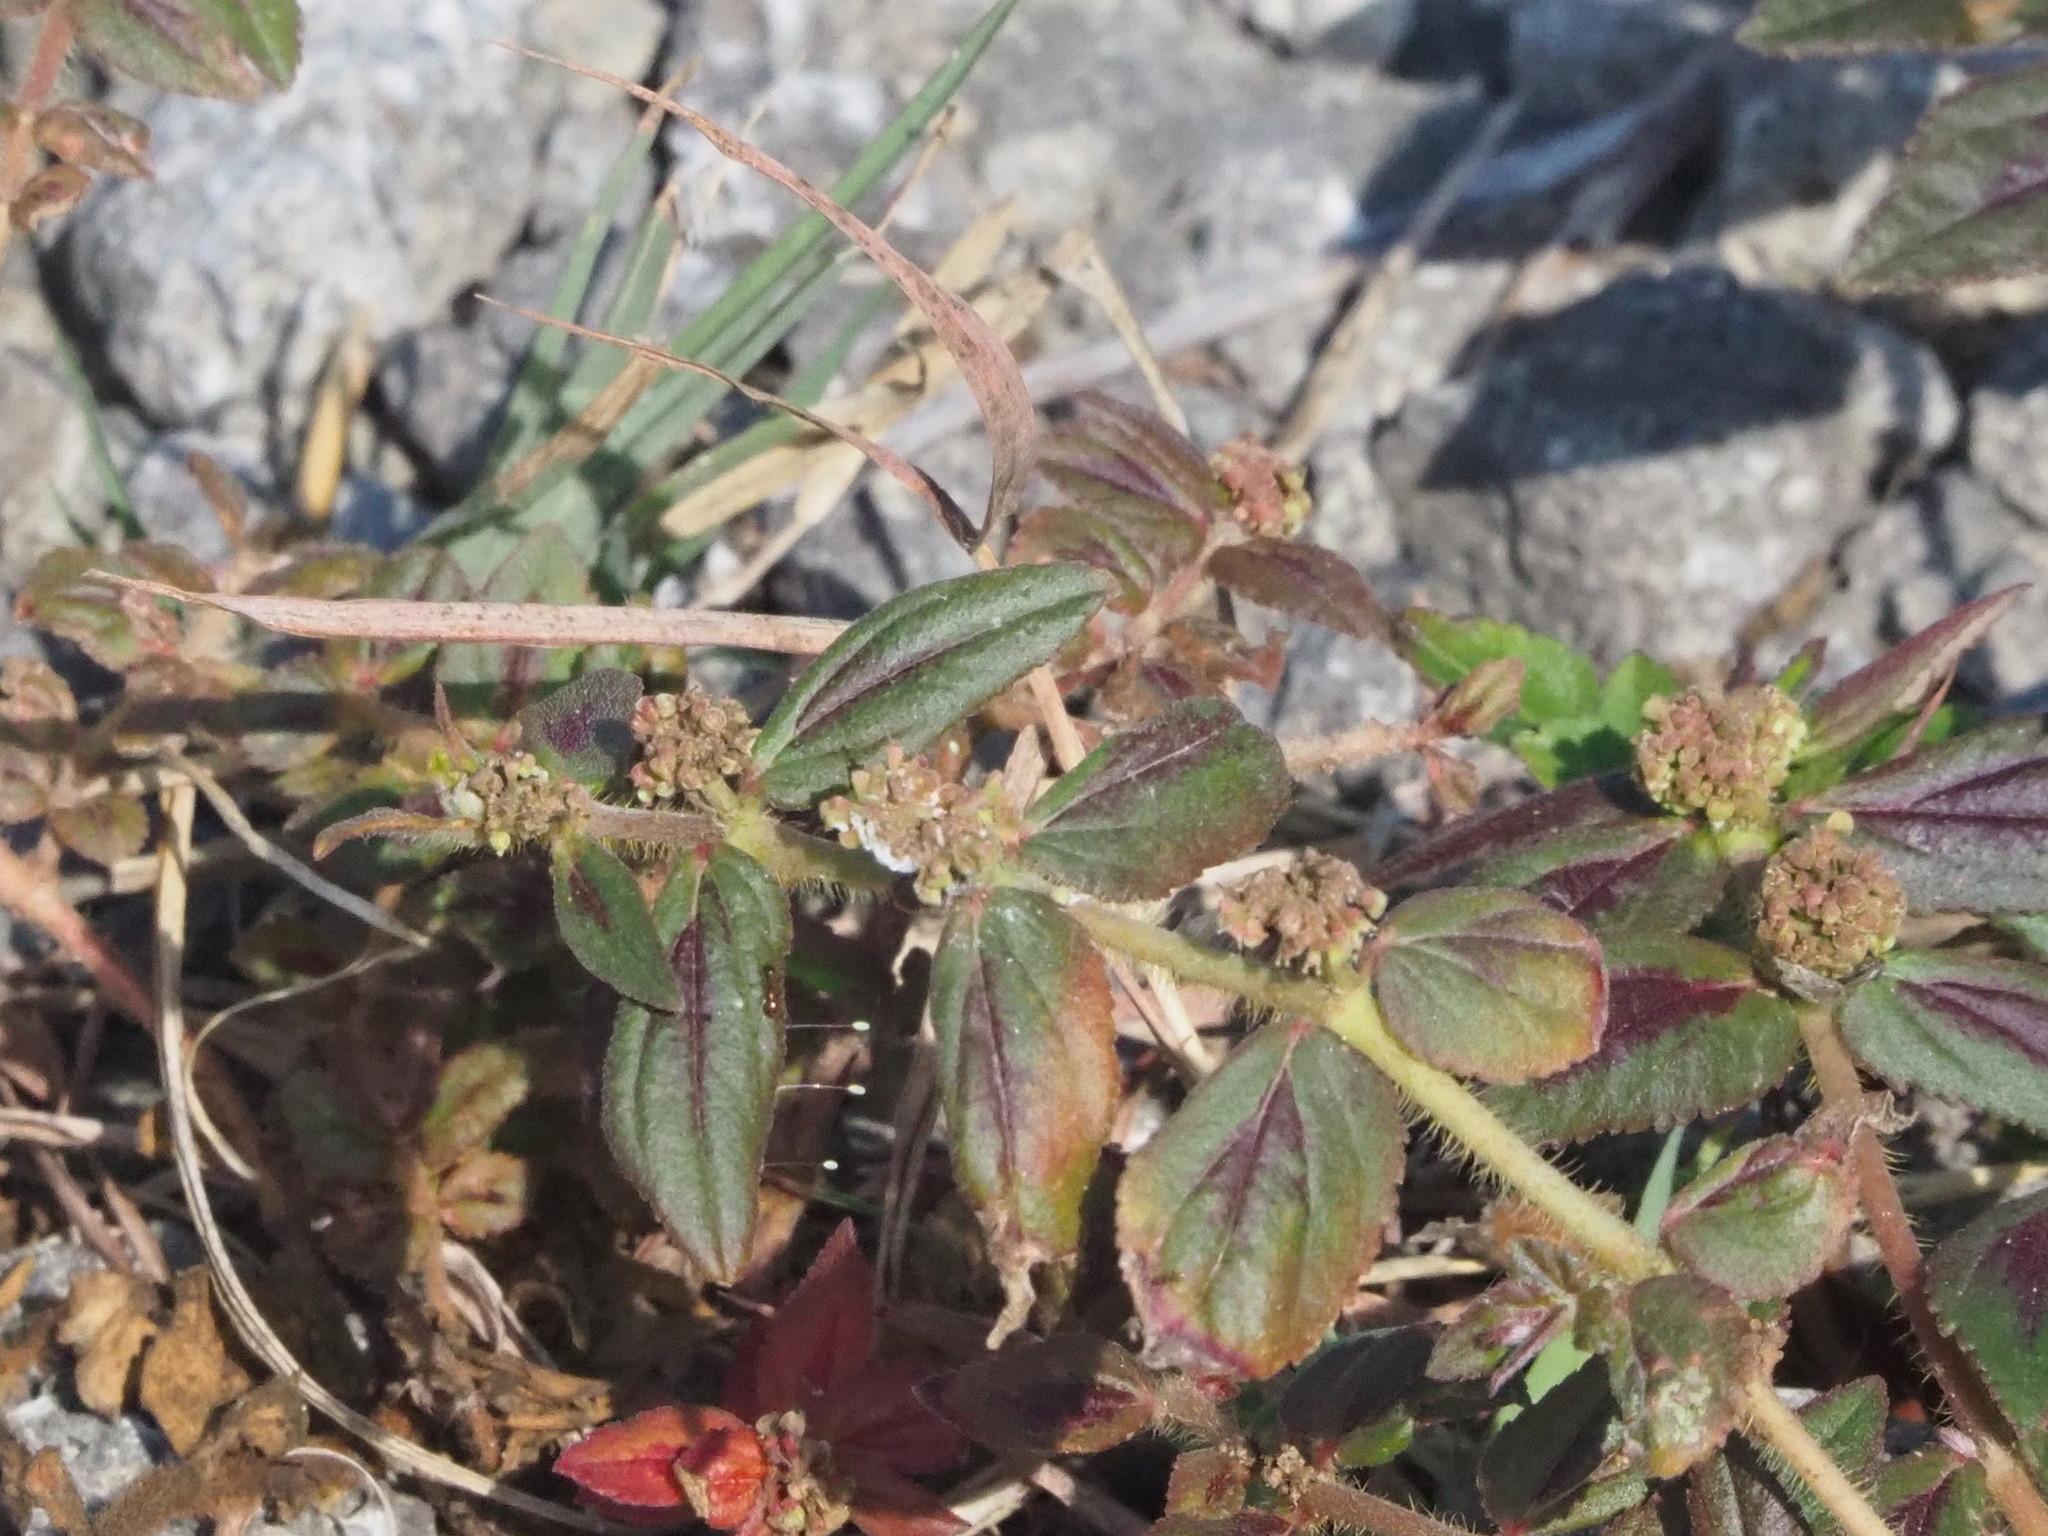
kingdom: Plantae
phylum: Tracheophyta
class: Magnoliopsida
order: Malpighiales
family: Euphorbiaceae
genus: Euphorbia
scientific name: Euphorbia hirta
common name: Pillpod sandmat
